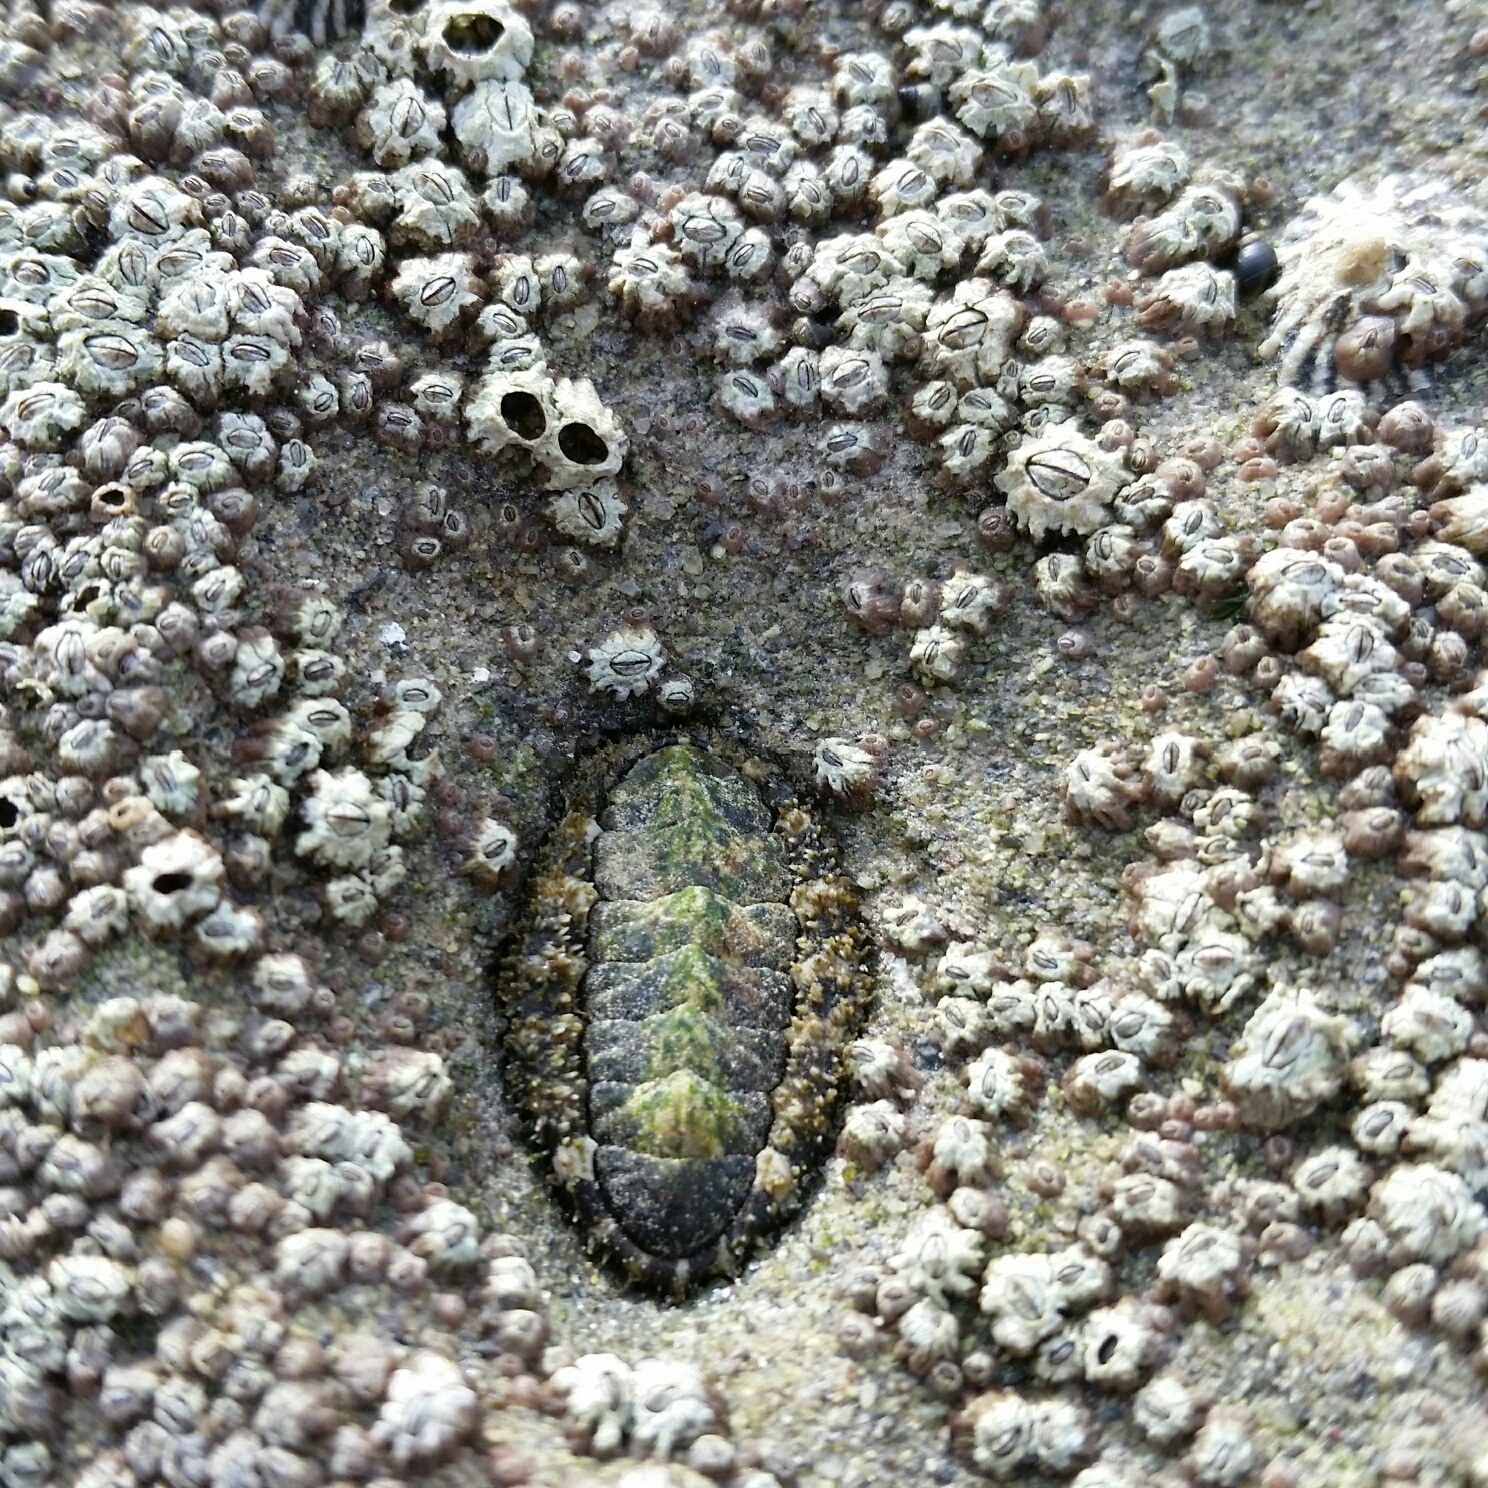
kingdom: Animalia
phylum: Mollusca
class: Polyplacophora
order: Chitonida
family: Tonicellidae
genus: Nuttallina
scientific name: Nuttallina californica
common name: California nuttall chiton
